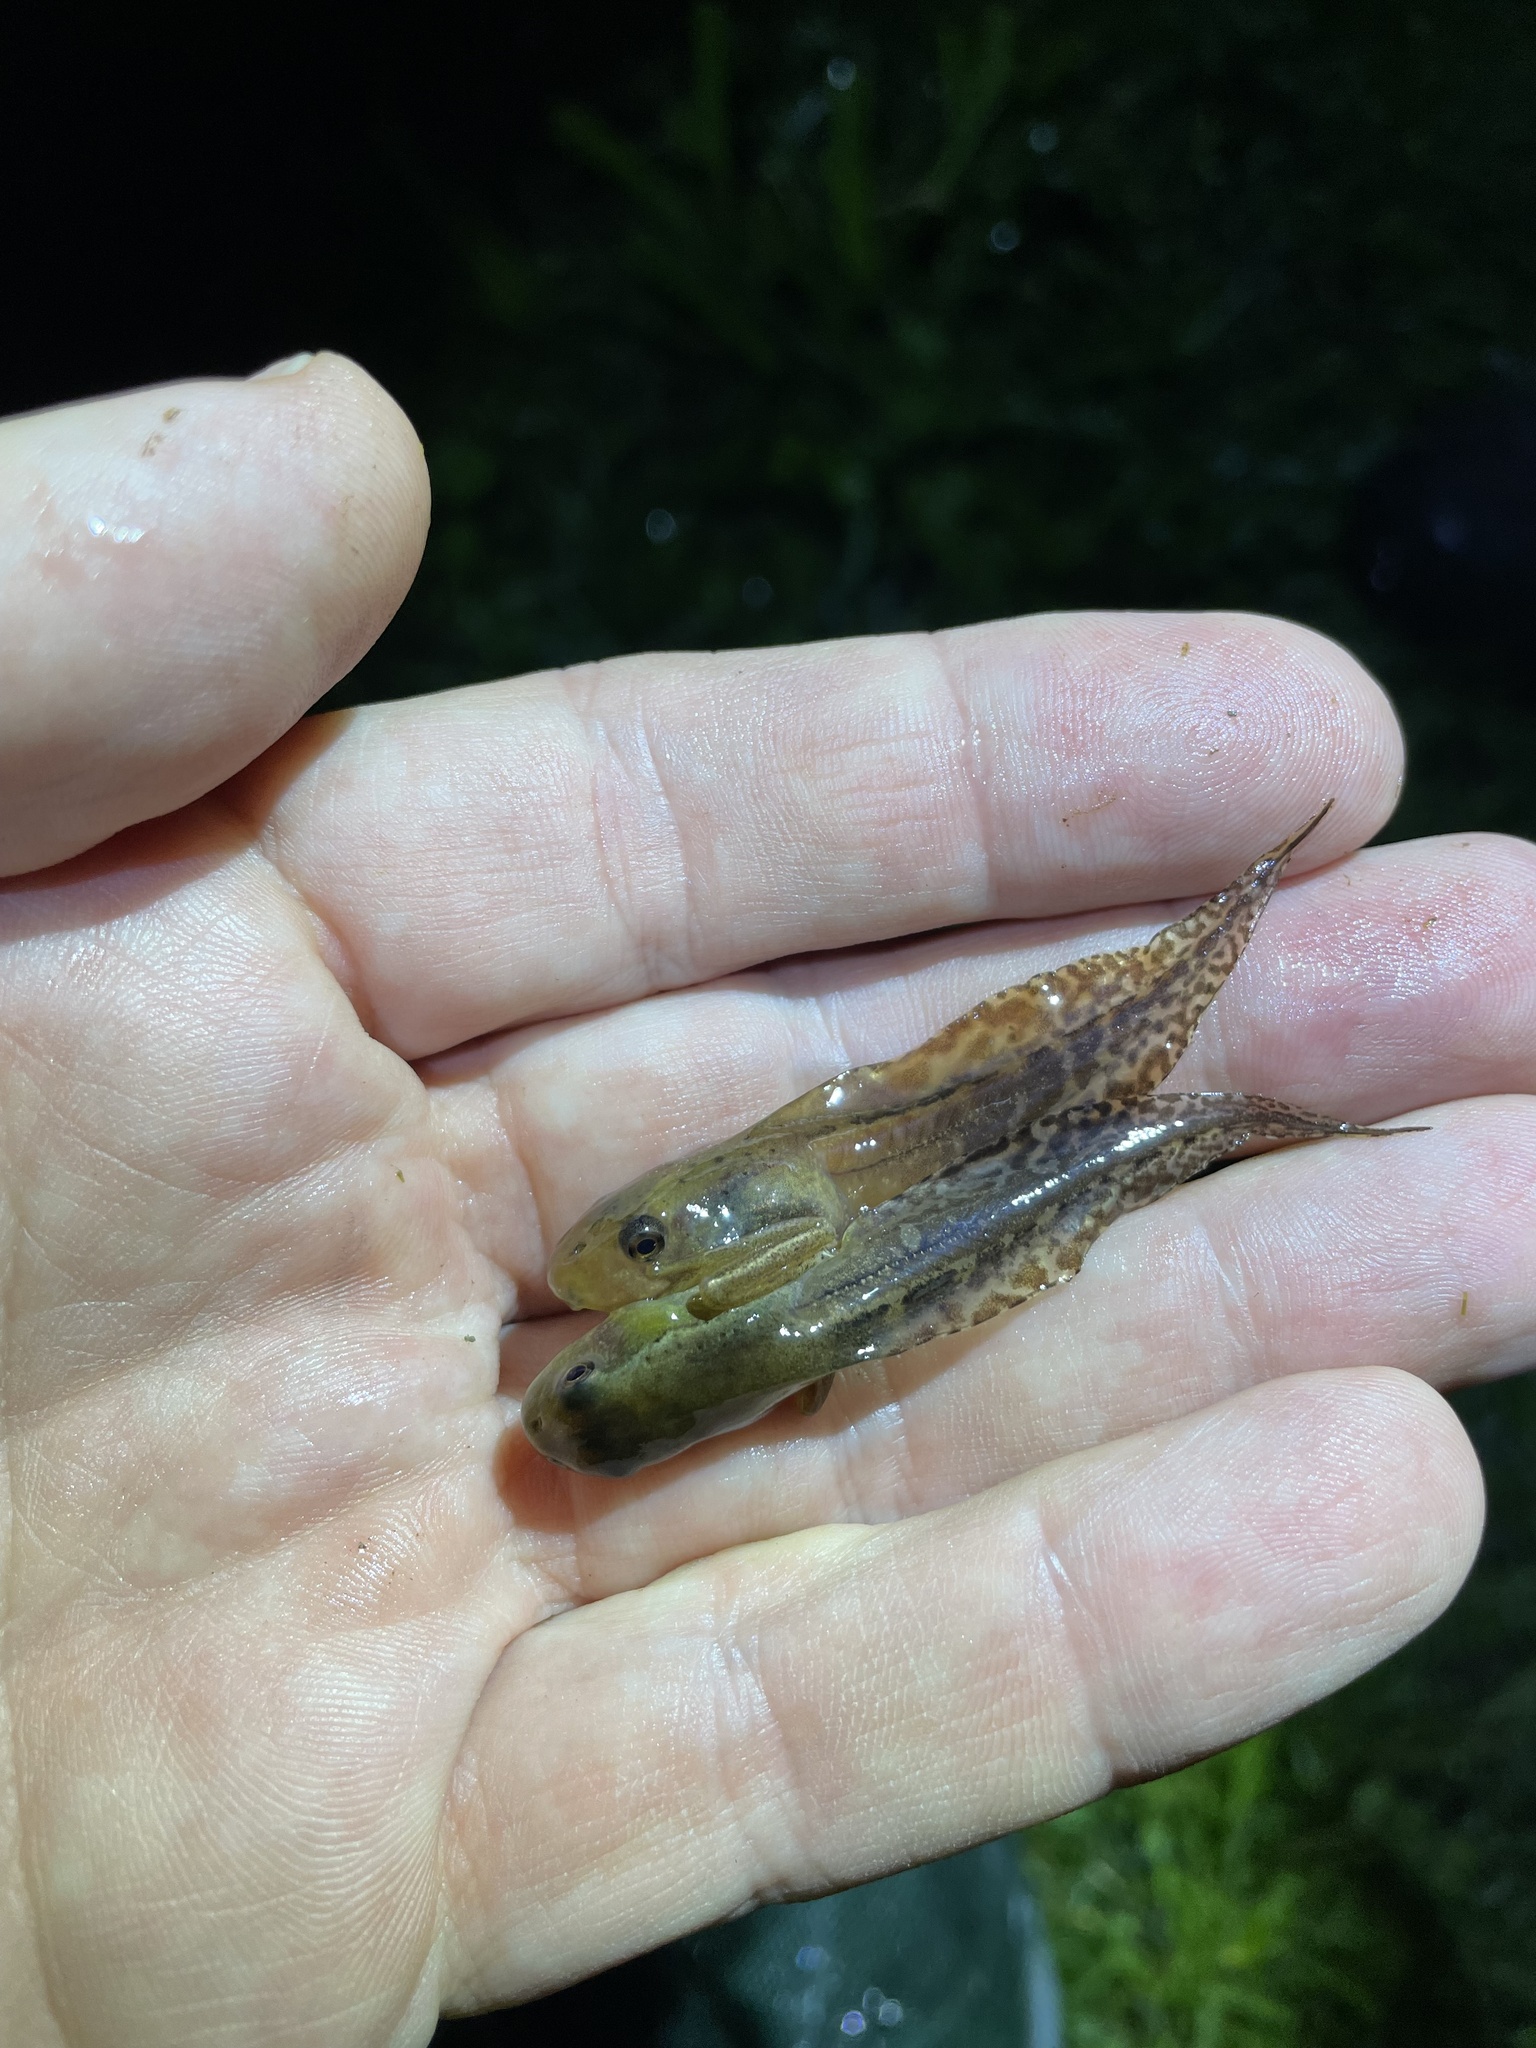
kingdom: Animalia
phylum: Chordata
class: Amphibia
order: Anura
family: Hylidae
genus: Boana
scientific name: Boana pulchella
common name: Montevideo treefrog
